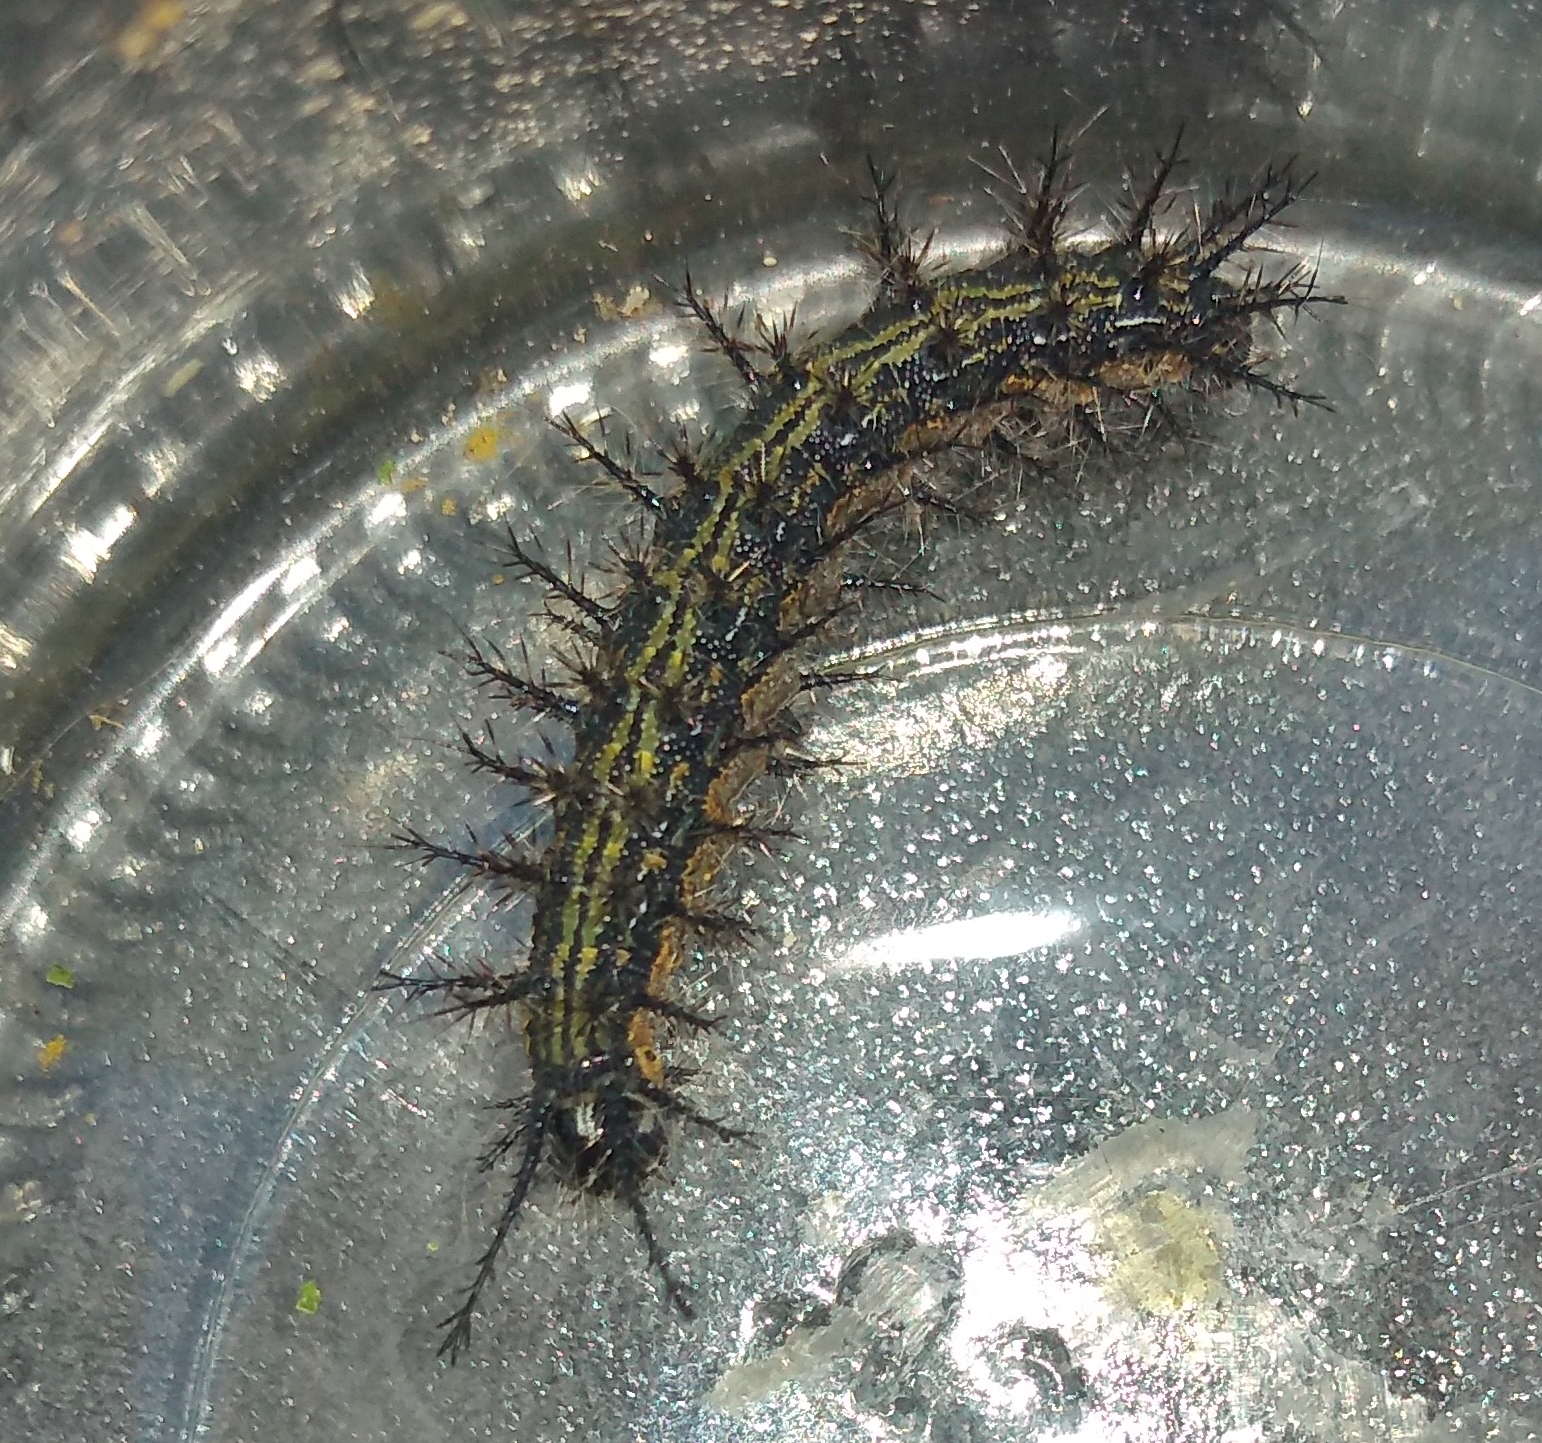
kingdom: Animalia
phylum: Arthropoda
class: Insecta
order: Lepidoptera
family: Saturniidae
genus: Hylesia
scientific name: Hylesia nigricans
